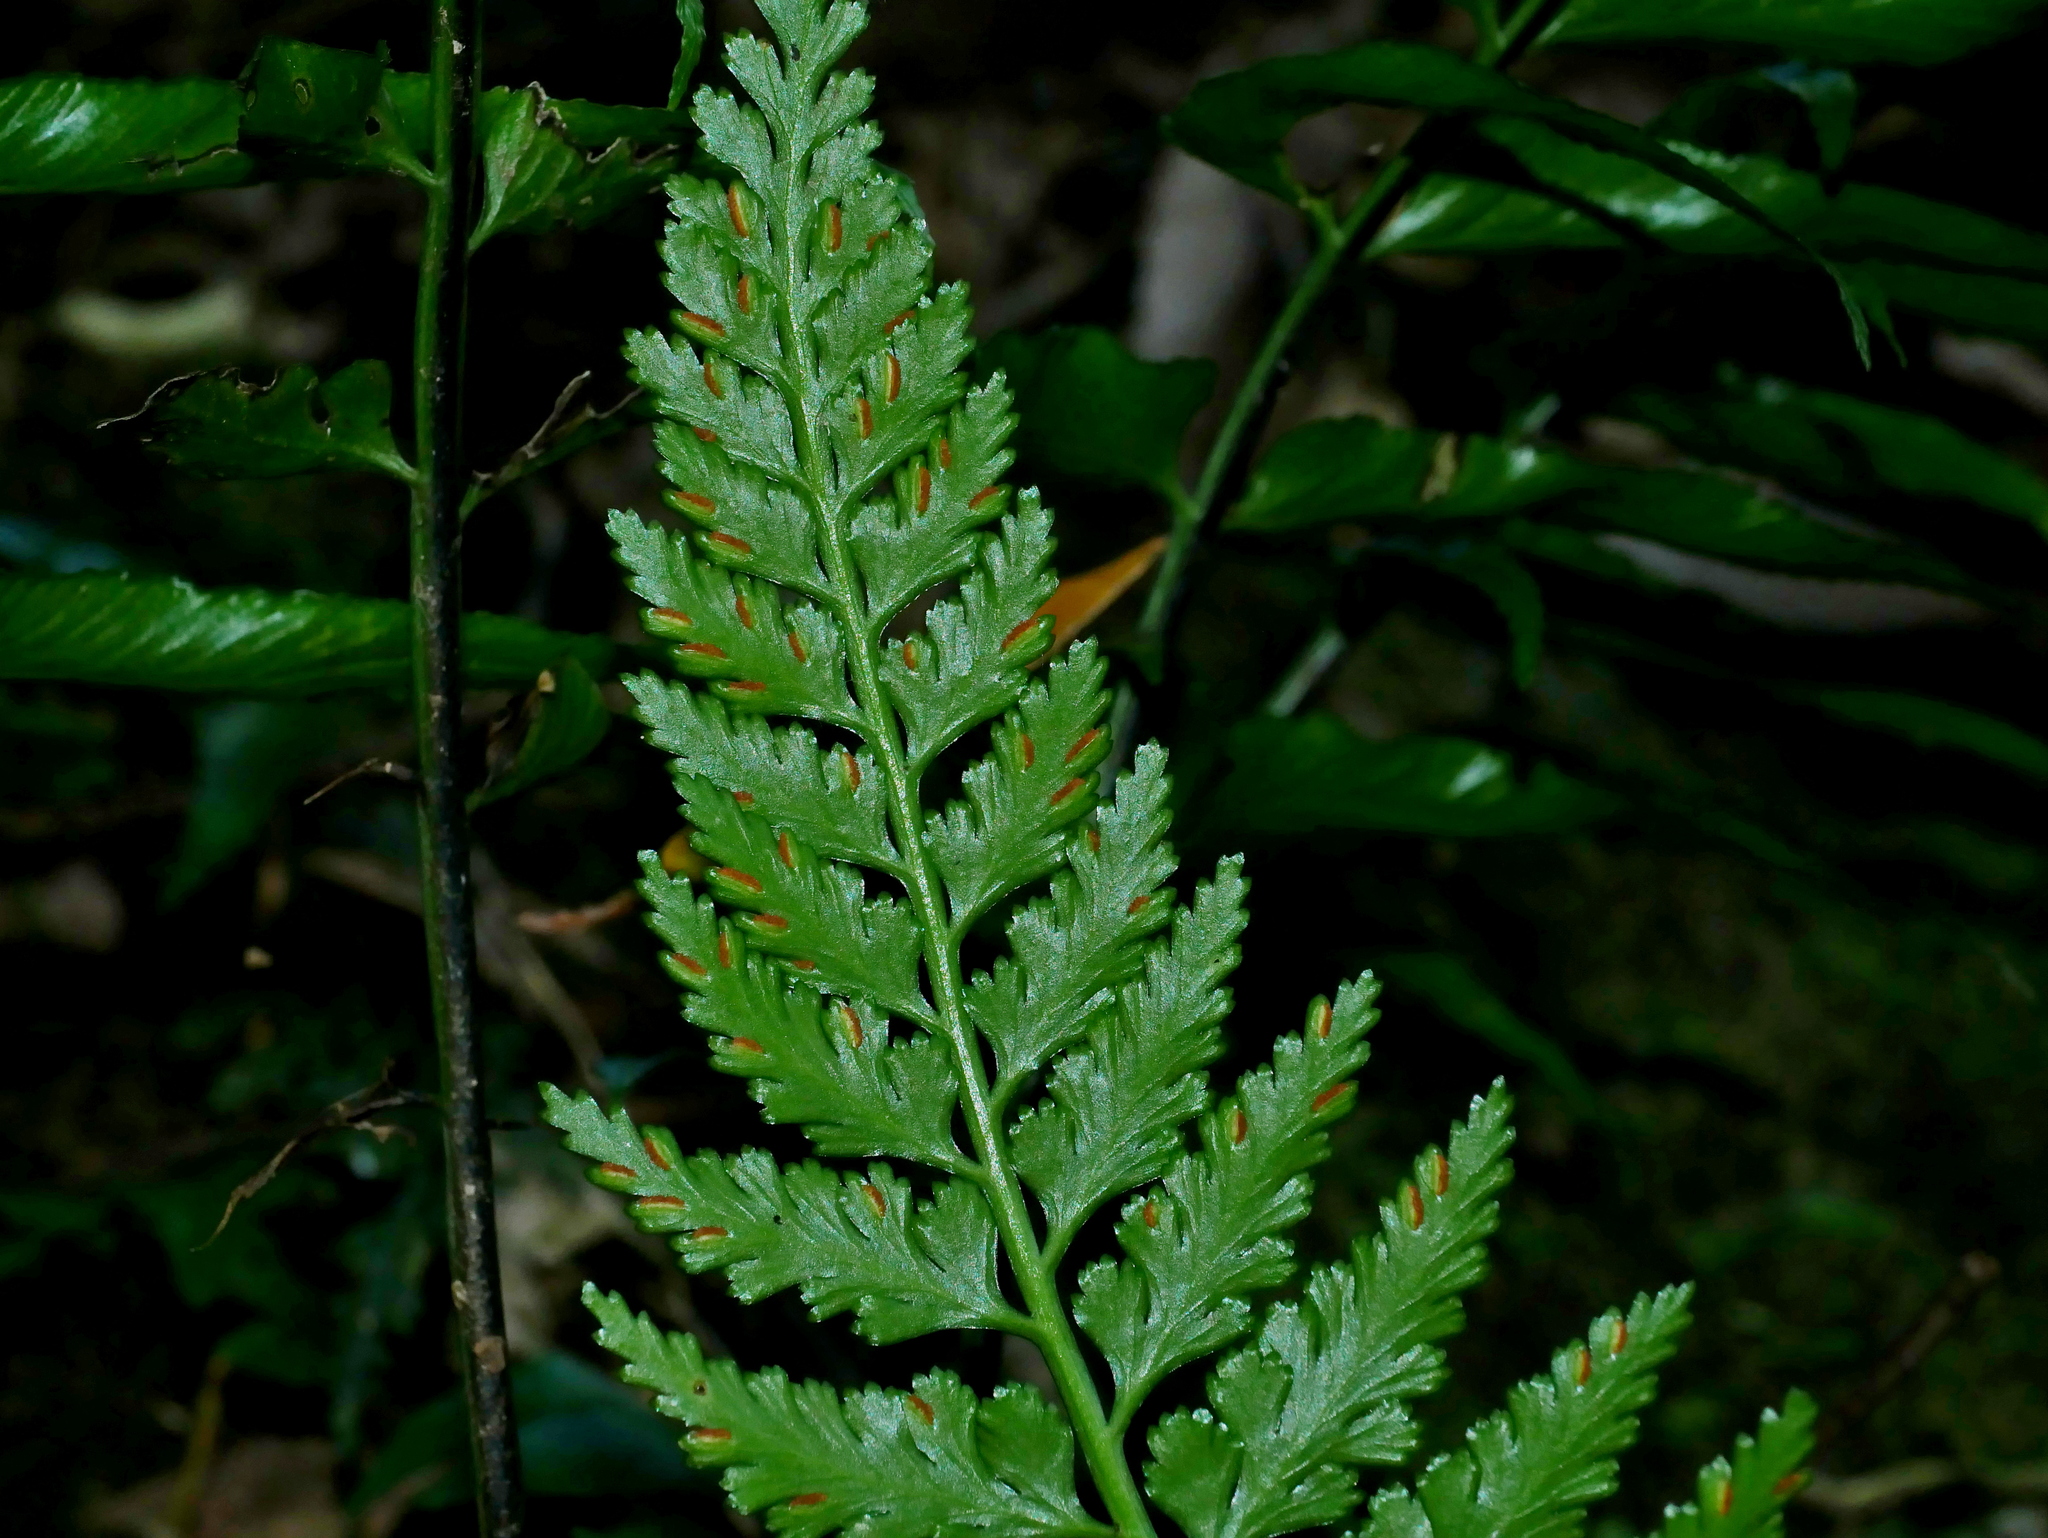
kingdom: Plantae
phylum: Tracheophyta
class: Polypodiopsida
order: Polypodiales
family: Aspleniaceae
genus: Asplenium
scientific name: Asplenium shikokianum
